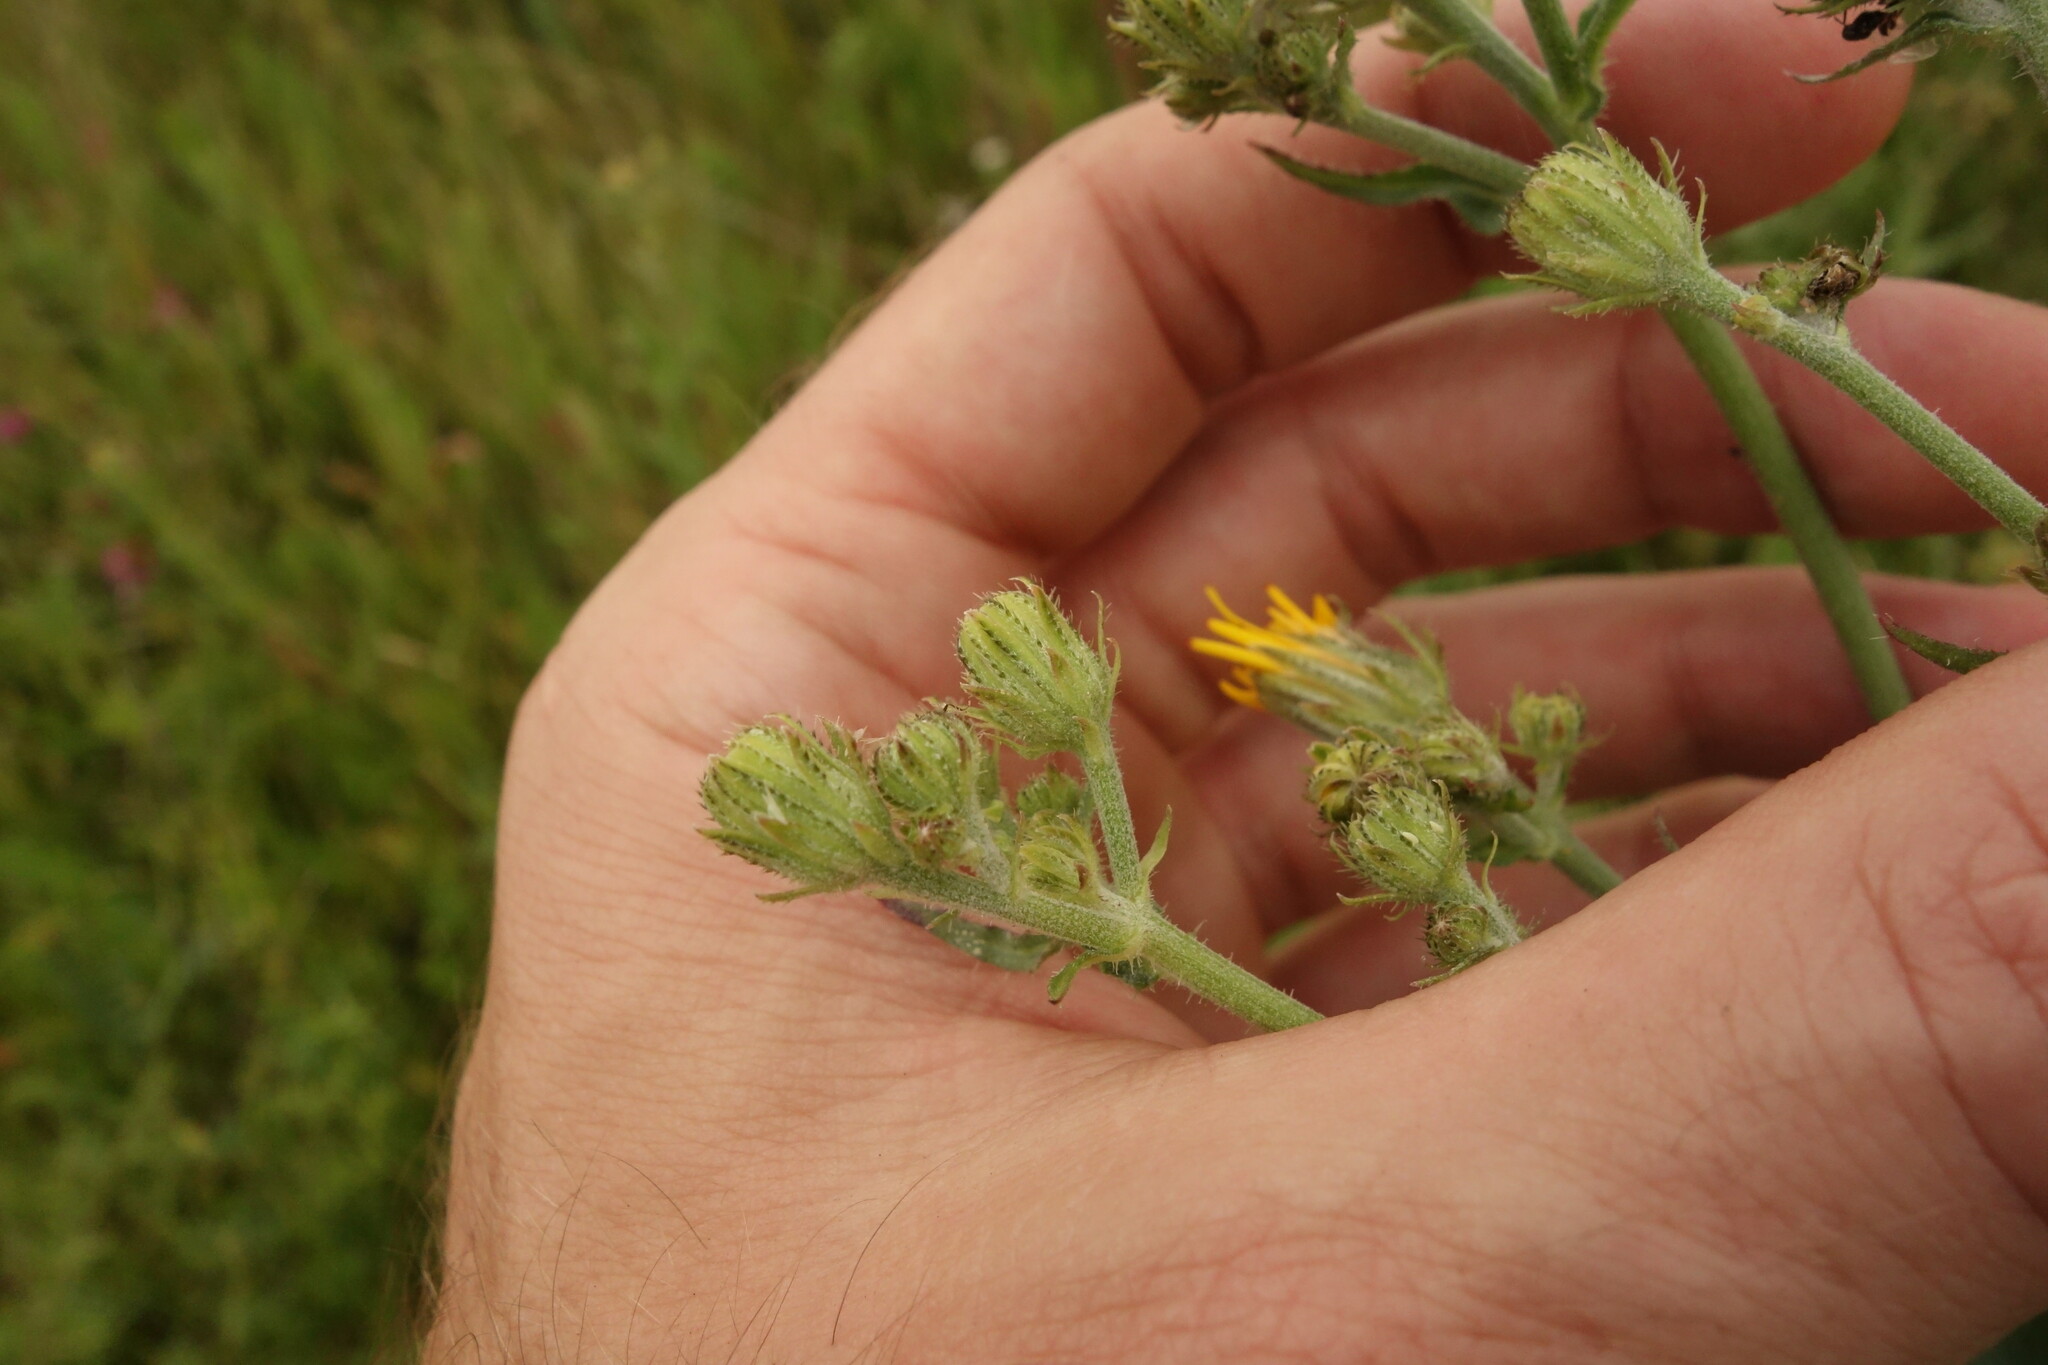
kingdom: Plantae
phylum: Tracheophyta
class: Magnoliopsida
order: Asterales
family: Asteraceae
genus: Picris
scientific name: Picris hieracioides
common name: Hawkweed oxtongue
